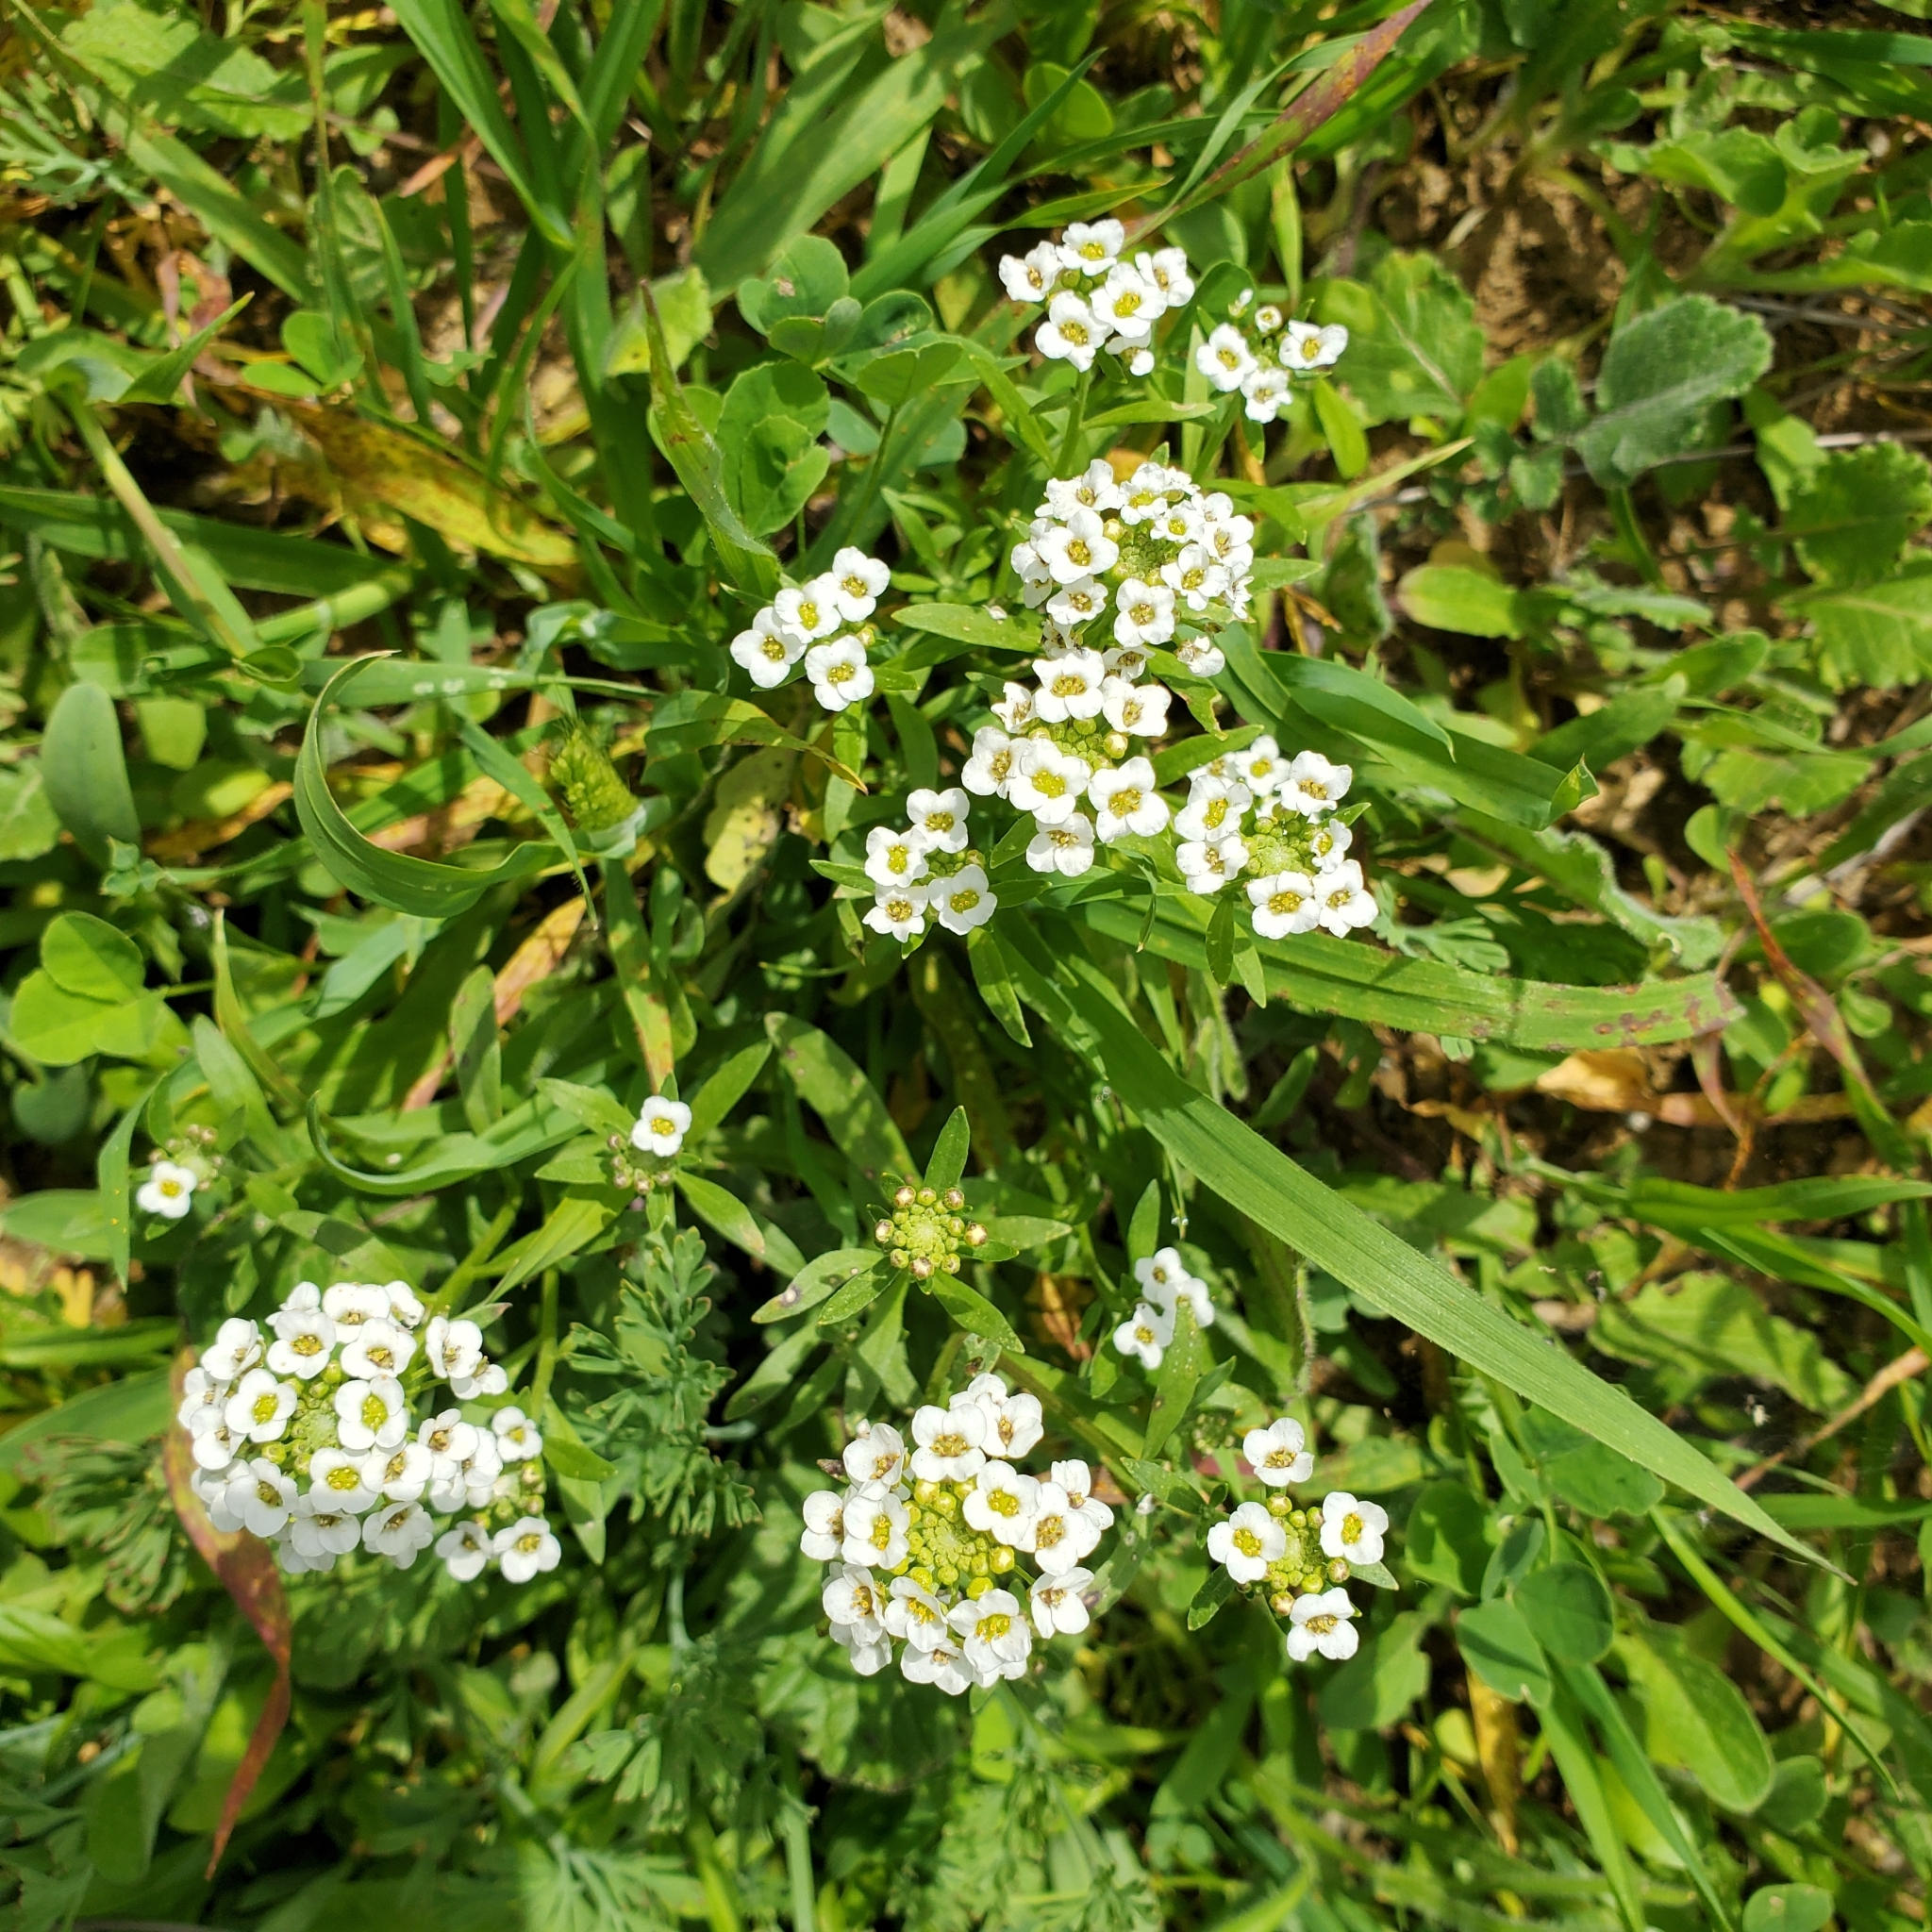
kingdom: Plantae
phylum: Tracheophyta
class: Magnoliopsida
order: Brassicales
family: Brassicaceae
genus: Lobularia
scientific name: Lobularia maritima
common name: Sweet alison
